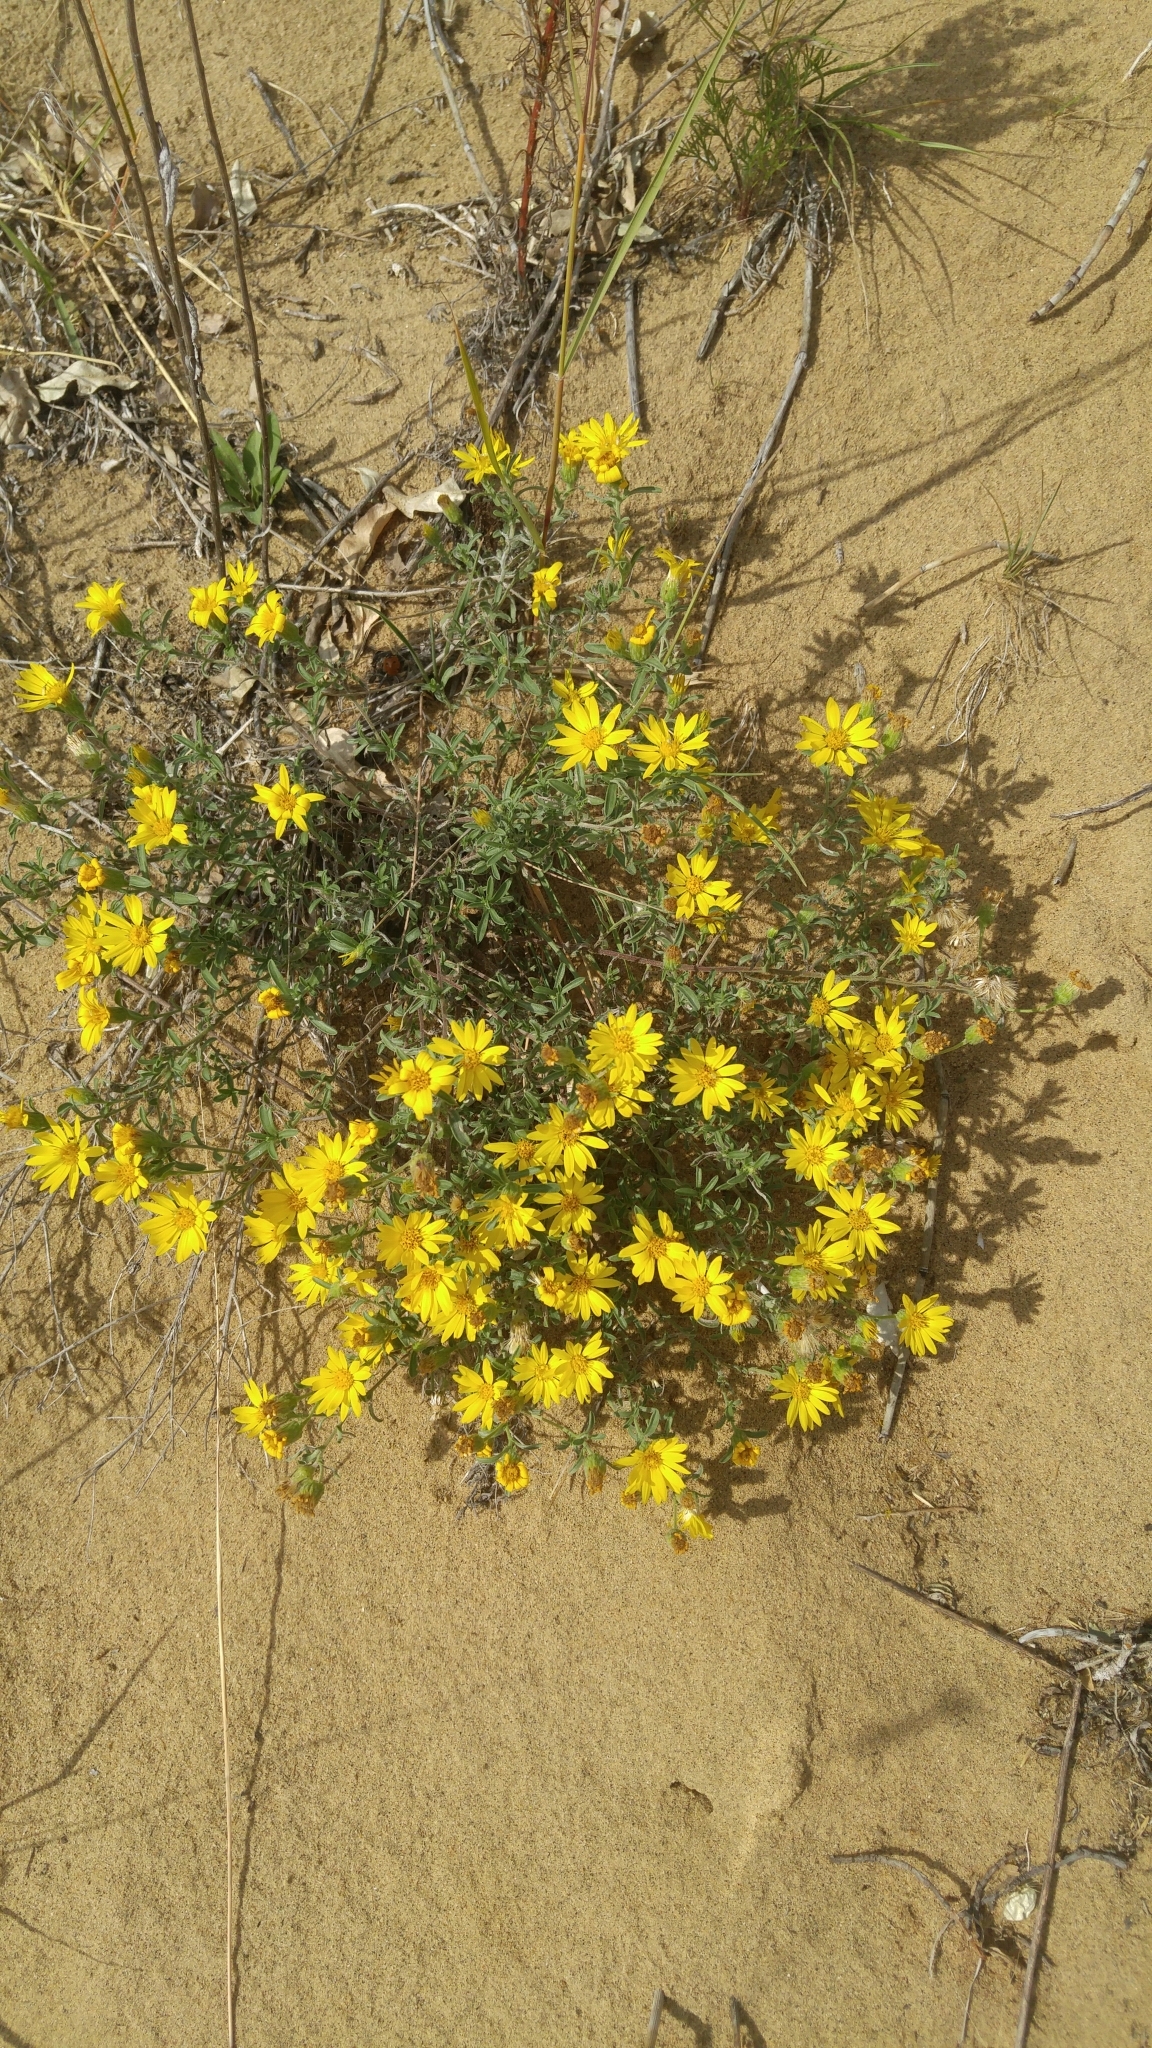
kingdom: Plantae
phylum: Tracheophyta
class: Magnoliopsida
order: Asterales
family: Asteraceae
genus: Heterotheca
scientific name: Heterotheca villosa
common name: Hairy false goldenaster
